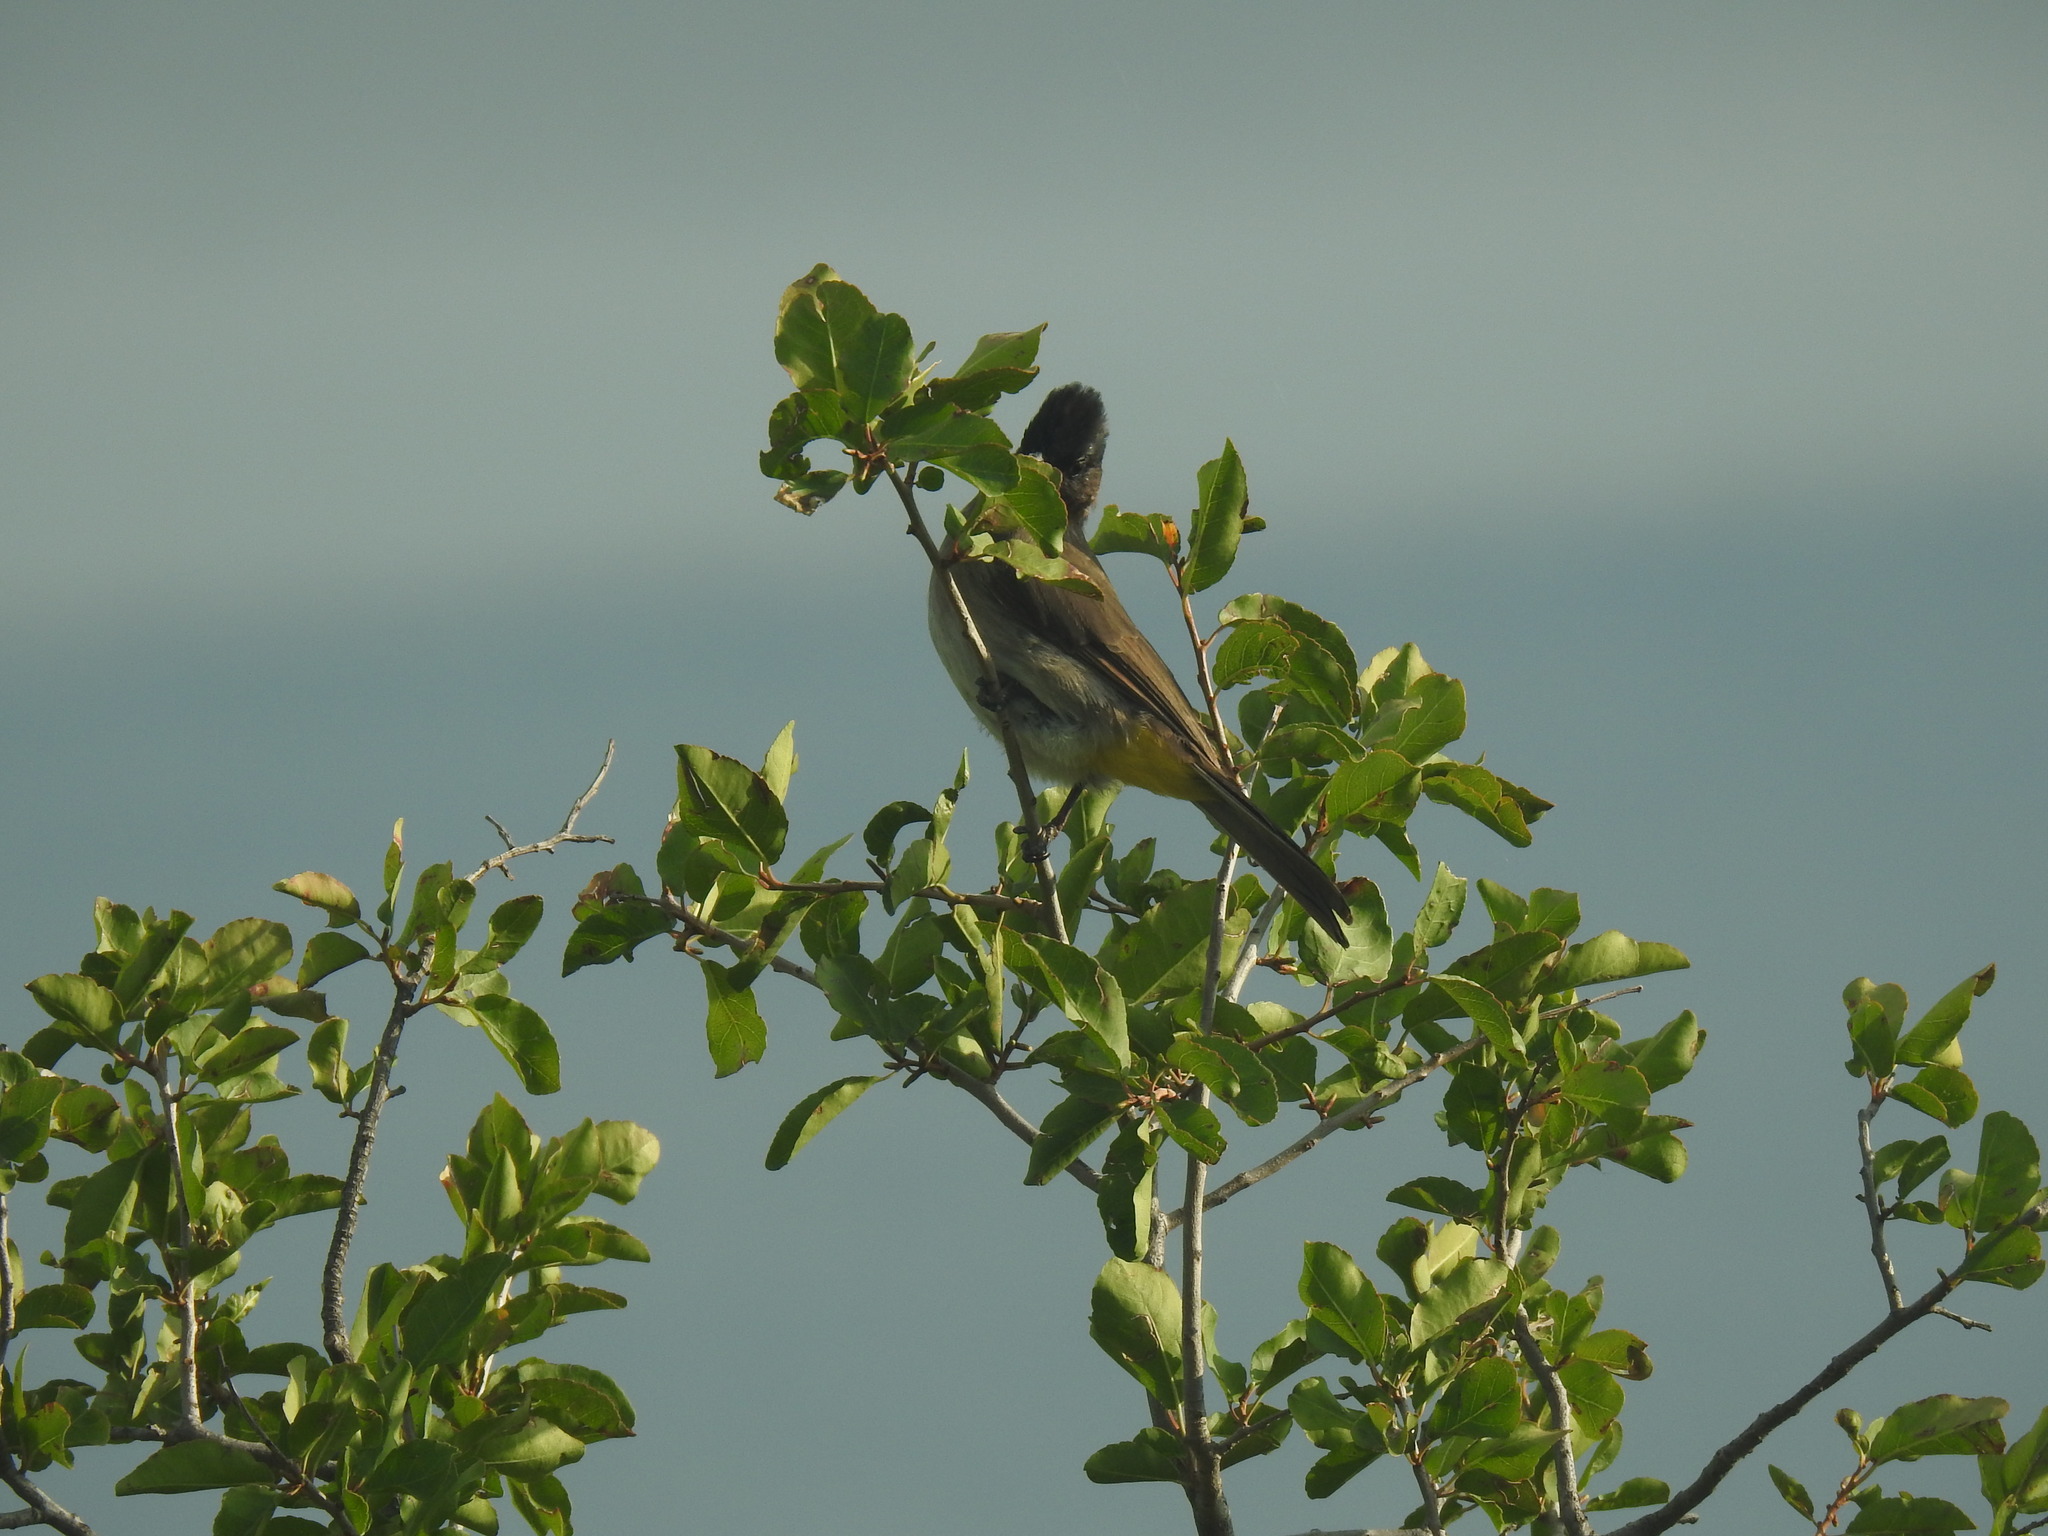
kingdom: Animalia
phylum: Chordata
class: Aves
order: Passeriformes
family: Pycnonotidae
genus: Pycnonotus
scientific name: Pycnonotus barbatus
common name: Common bulbul
